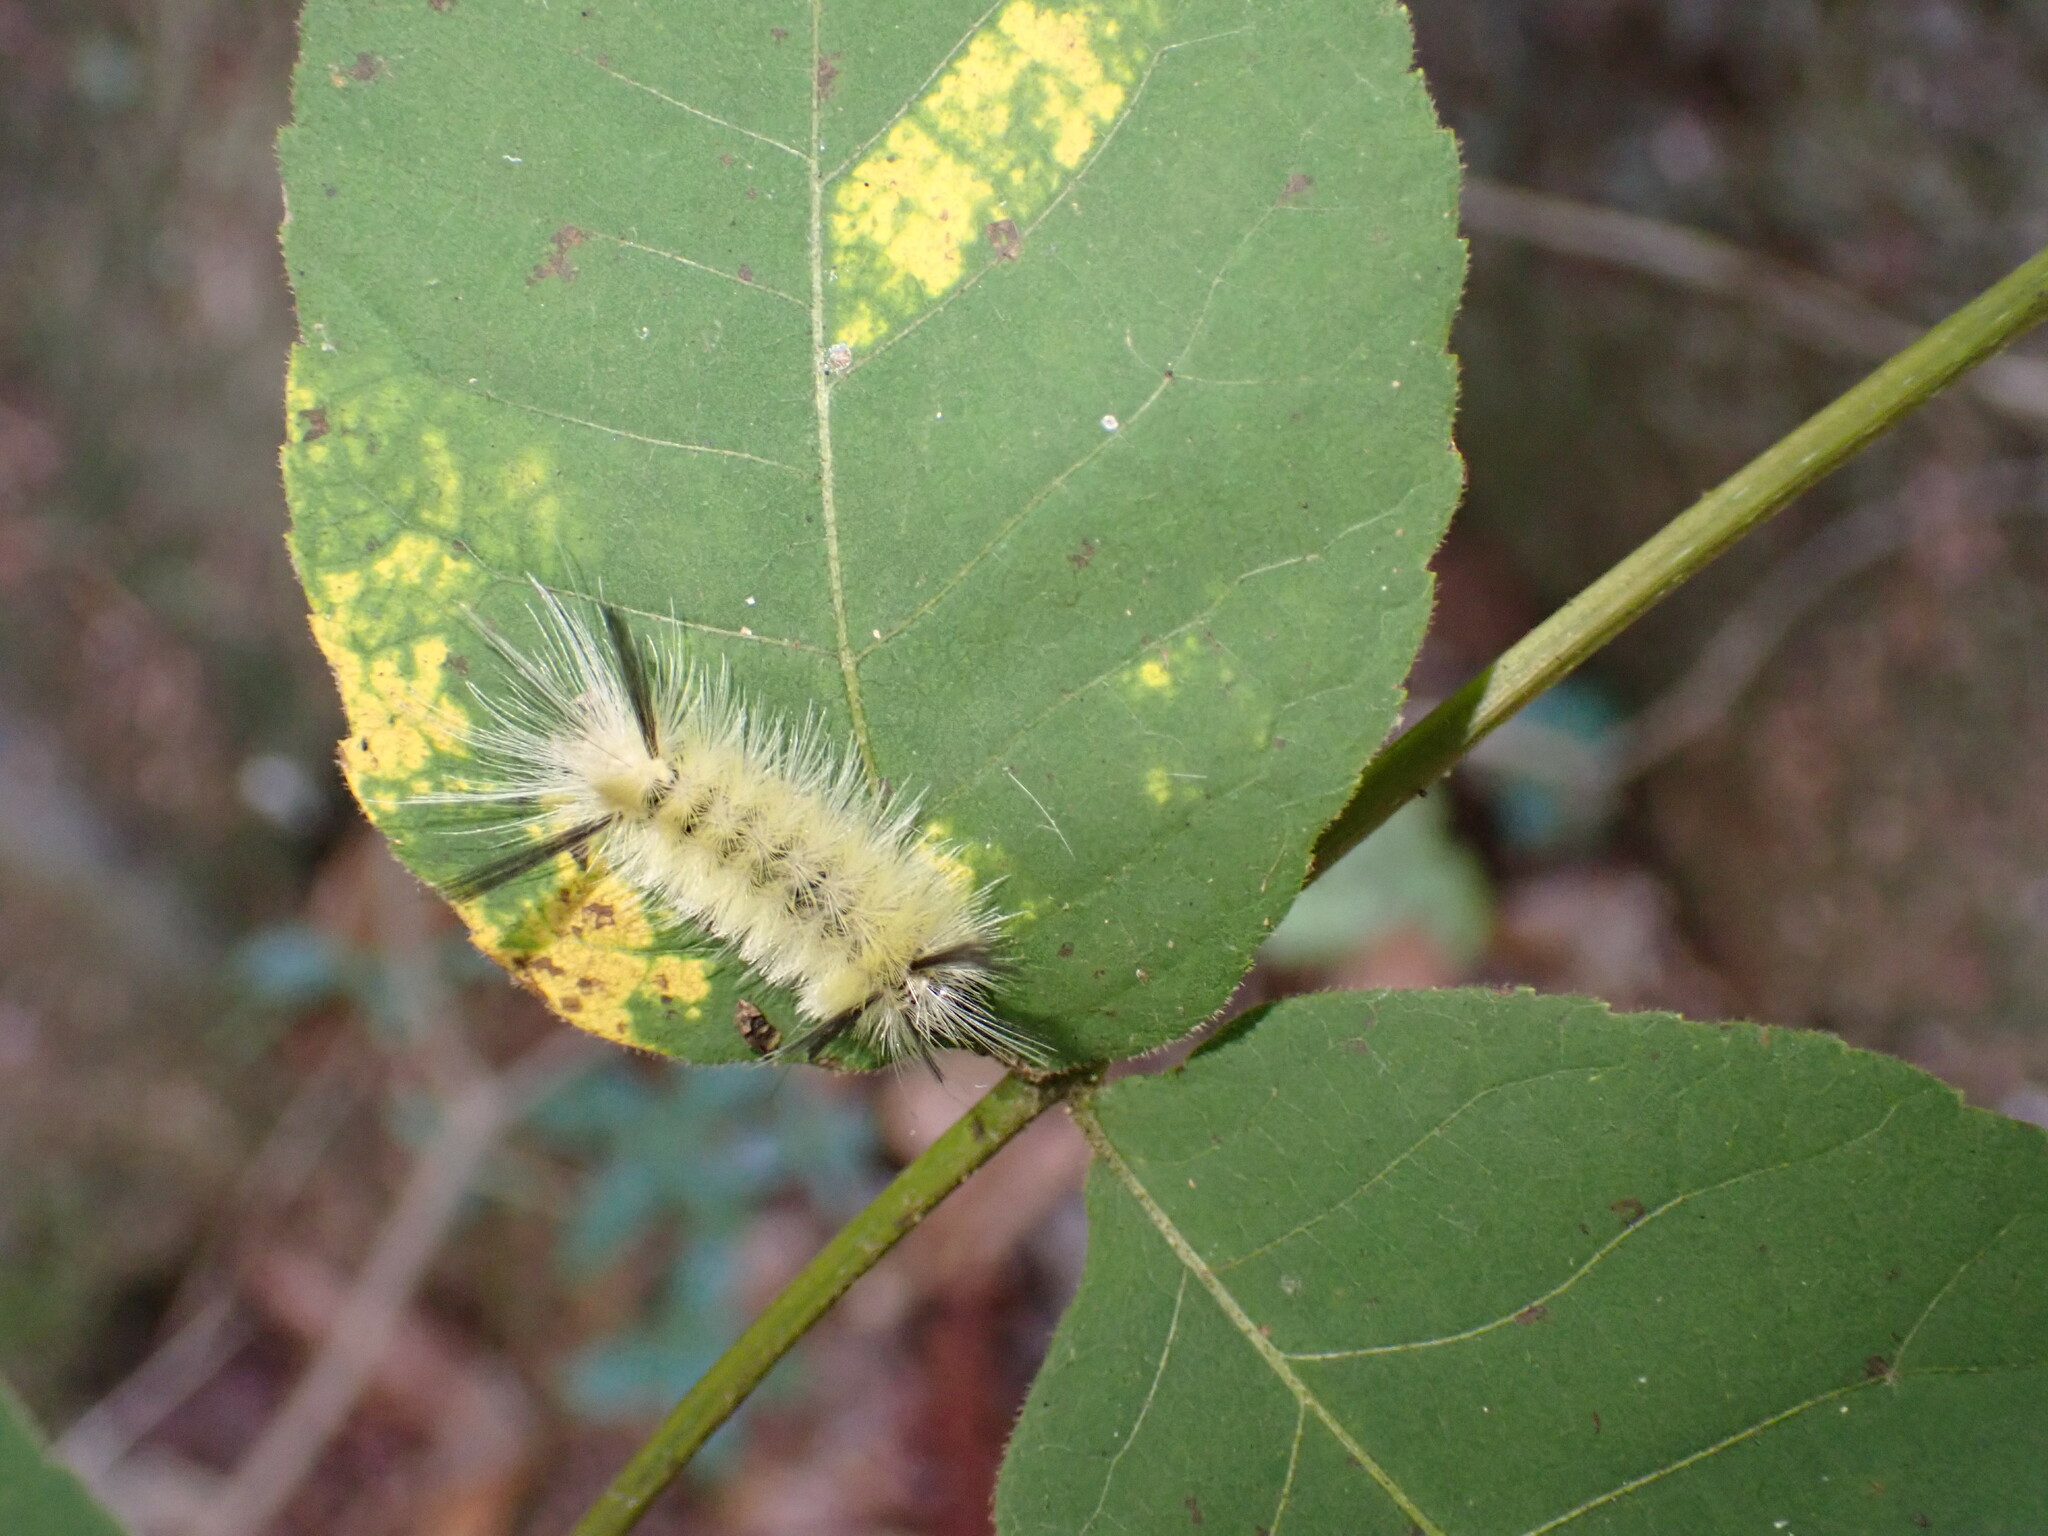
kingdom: Animalia
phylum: Arthropoda
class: Insecta
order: Lepidoptera
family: Erebidae
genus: Halysidota
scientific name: Halysidota tessellaris
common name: Banded tussock moth
